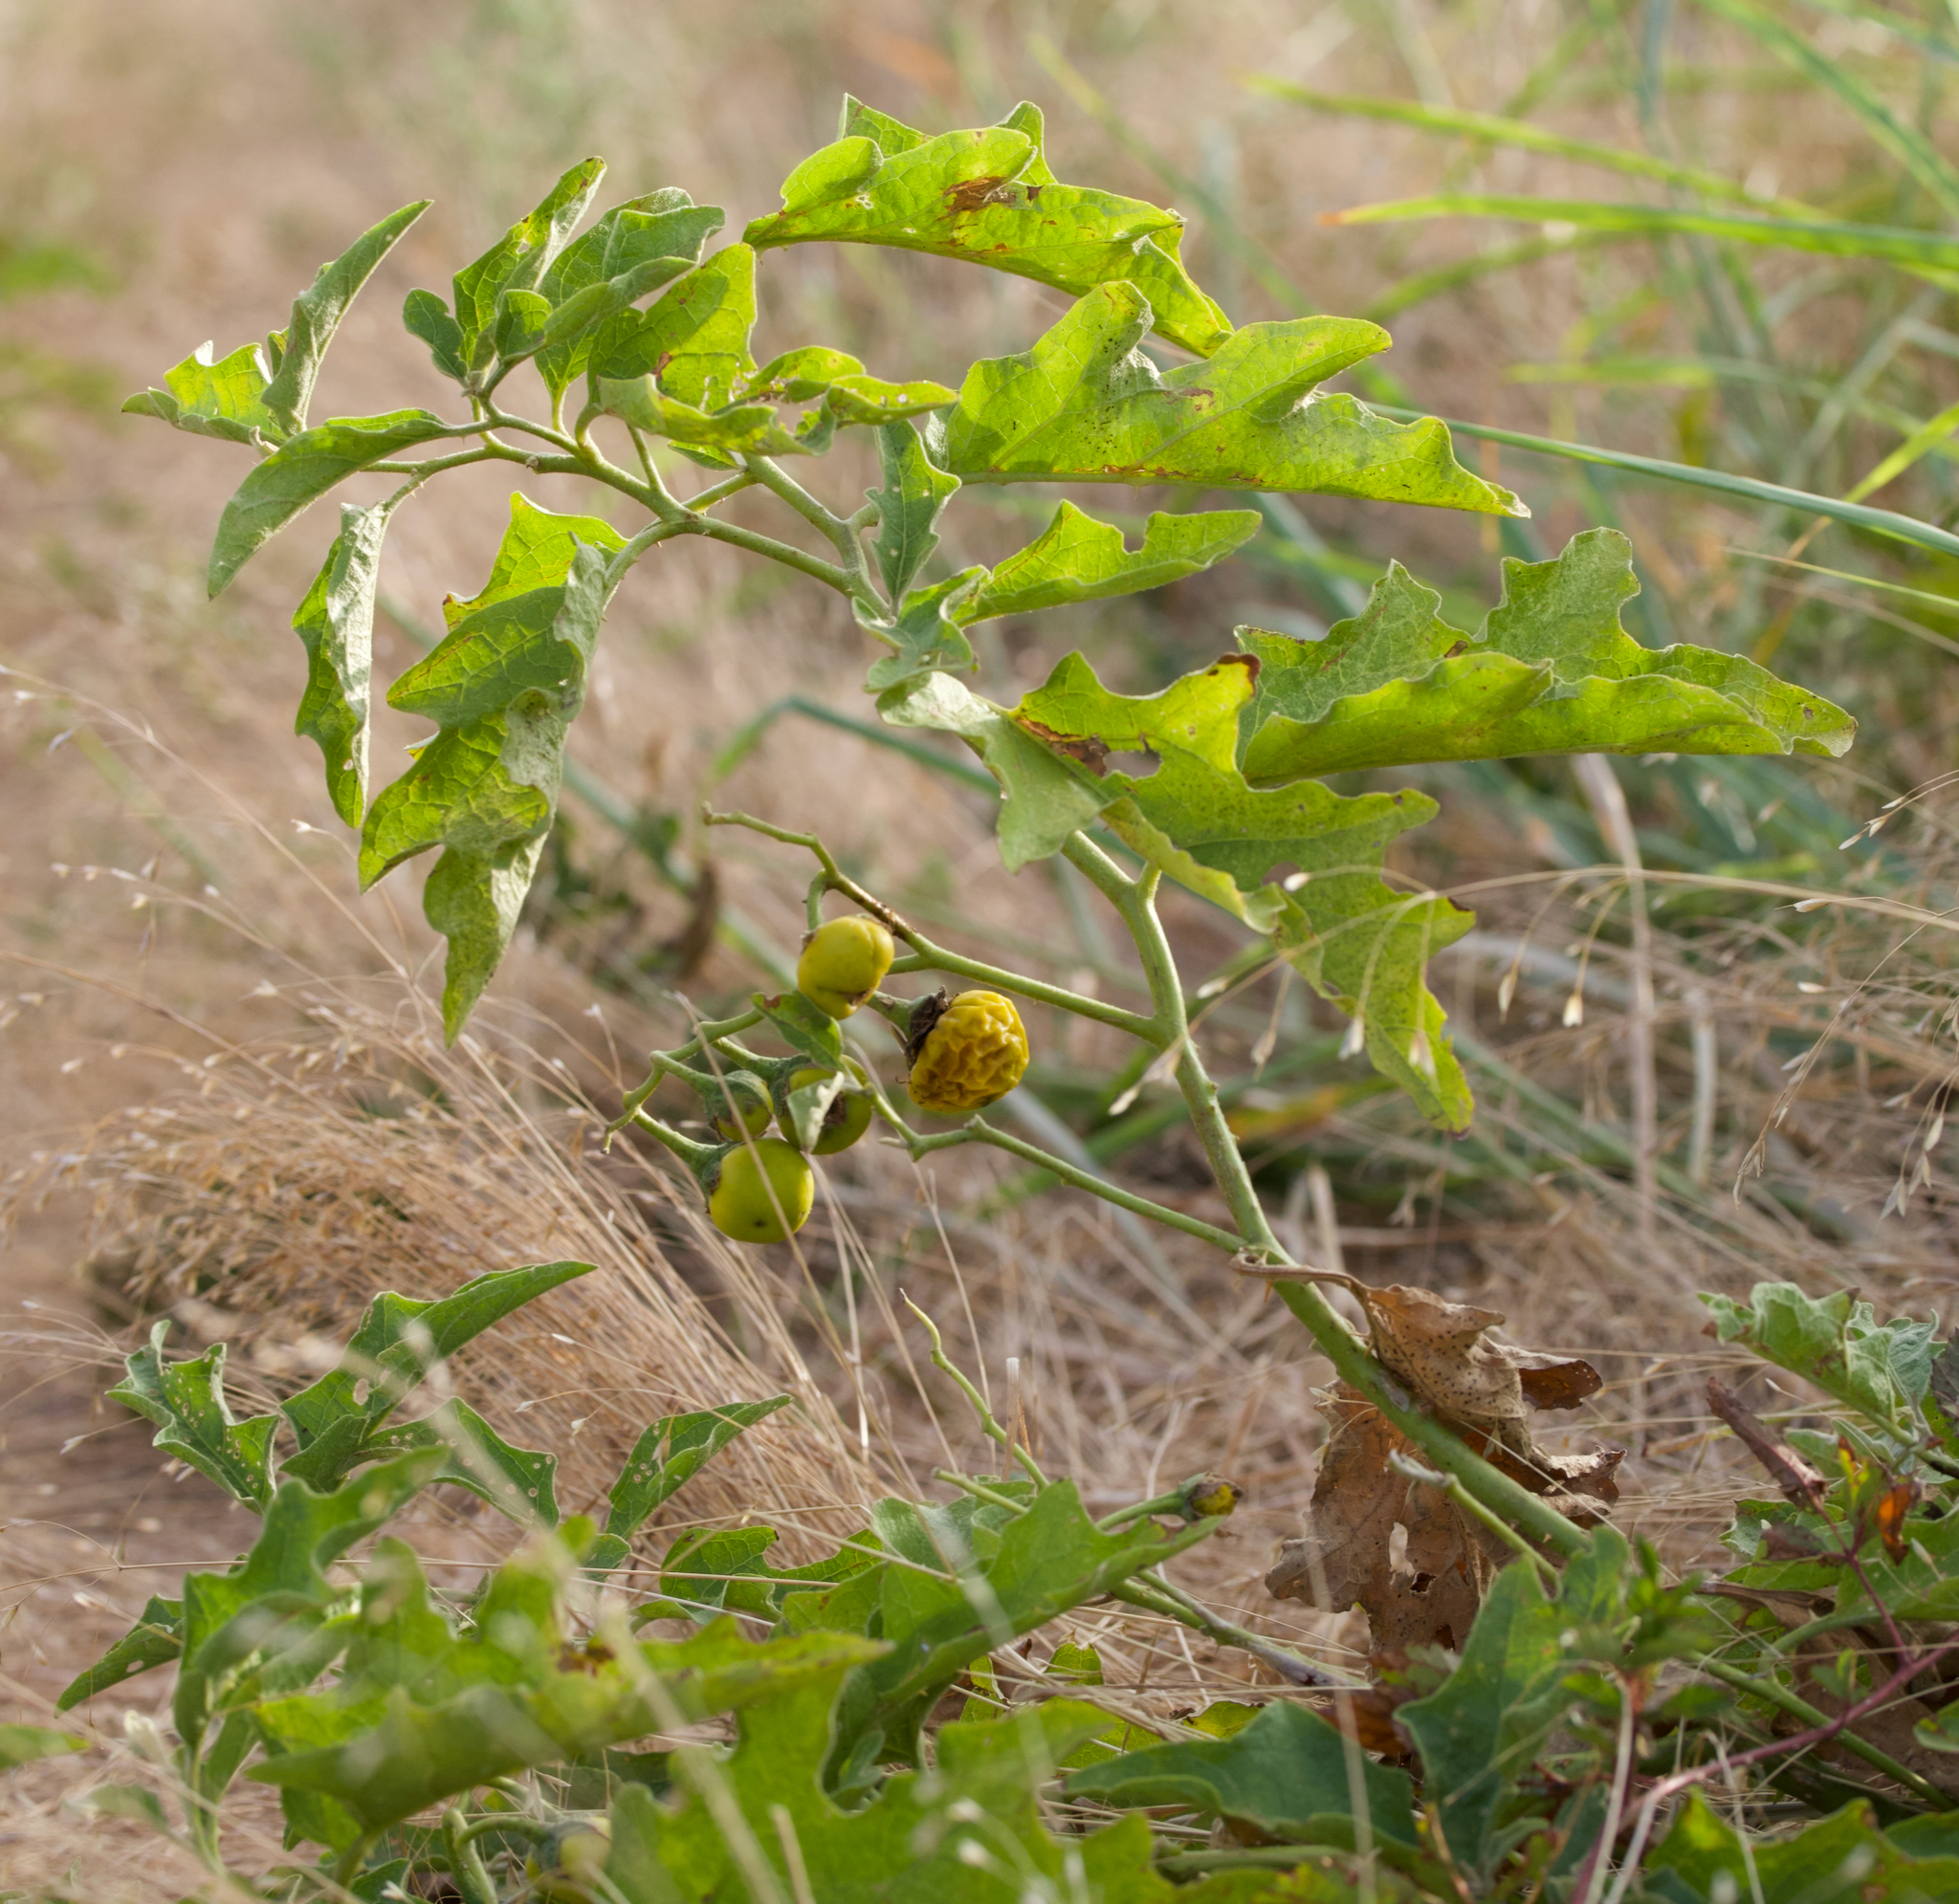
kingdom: Plantae
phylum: Tracheophyta
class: Magnoliopsida
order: Solanales
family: Solanaceae
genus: Solanum
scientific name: Solanum dimidiatum
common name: Carolina horse-nettle
